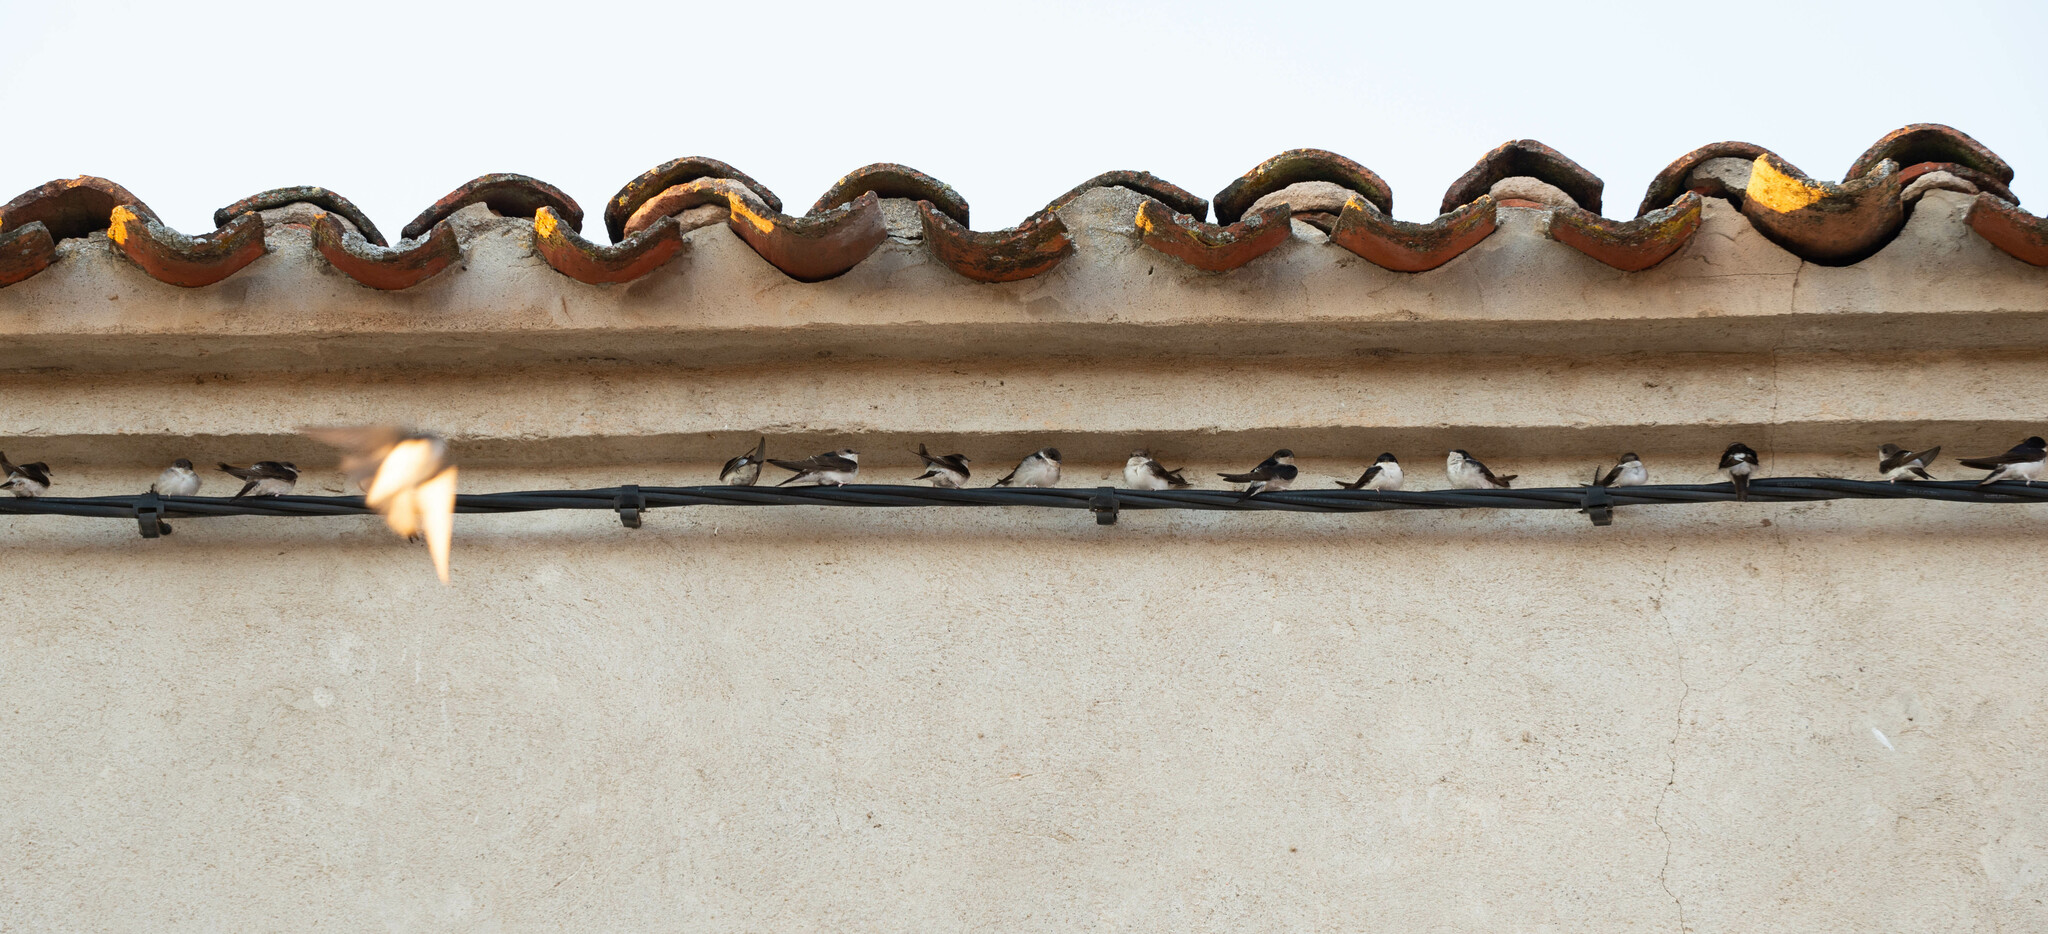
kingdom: Animalia
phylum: Chordata
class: Aves
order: Passeriformes
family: Hirundinidae
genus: Delichon
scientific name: Delichon urbicum
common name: Common house martin
